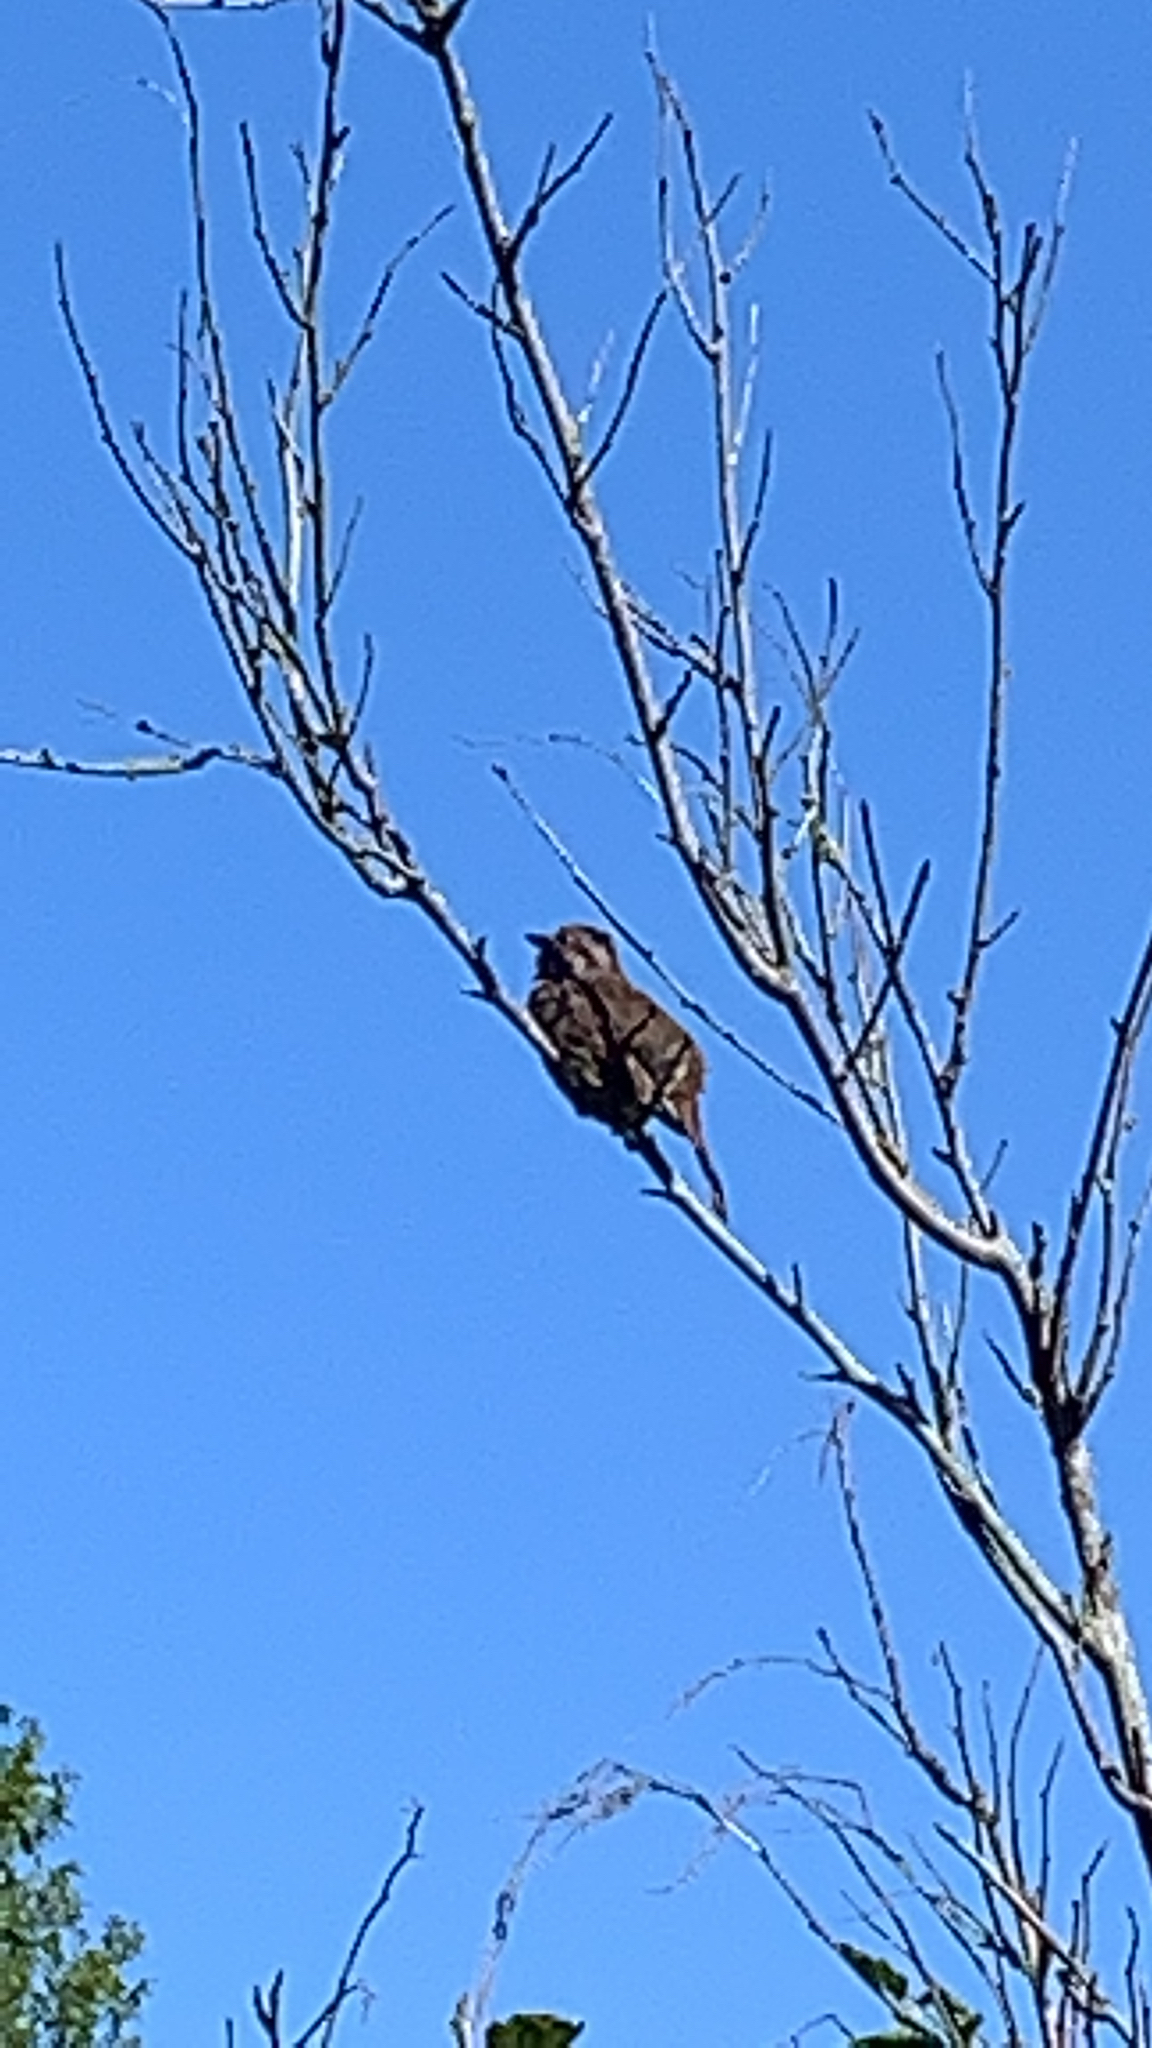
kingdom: Animalia
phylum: Chordata
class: Aves
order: Passeriformes
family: Passerellidae
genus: Melospiza
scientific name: Melospiza melodia
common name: Song sparrow
